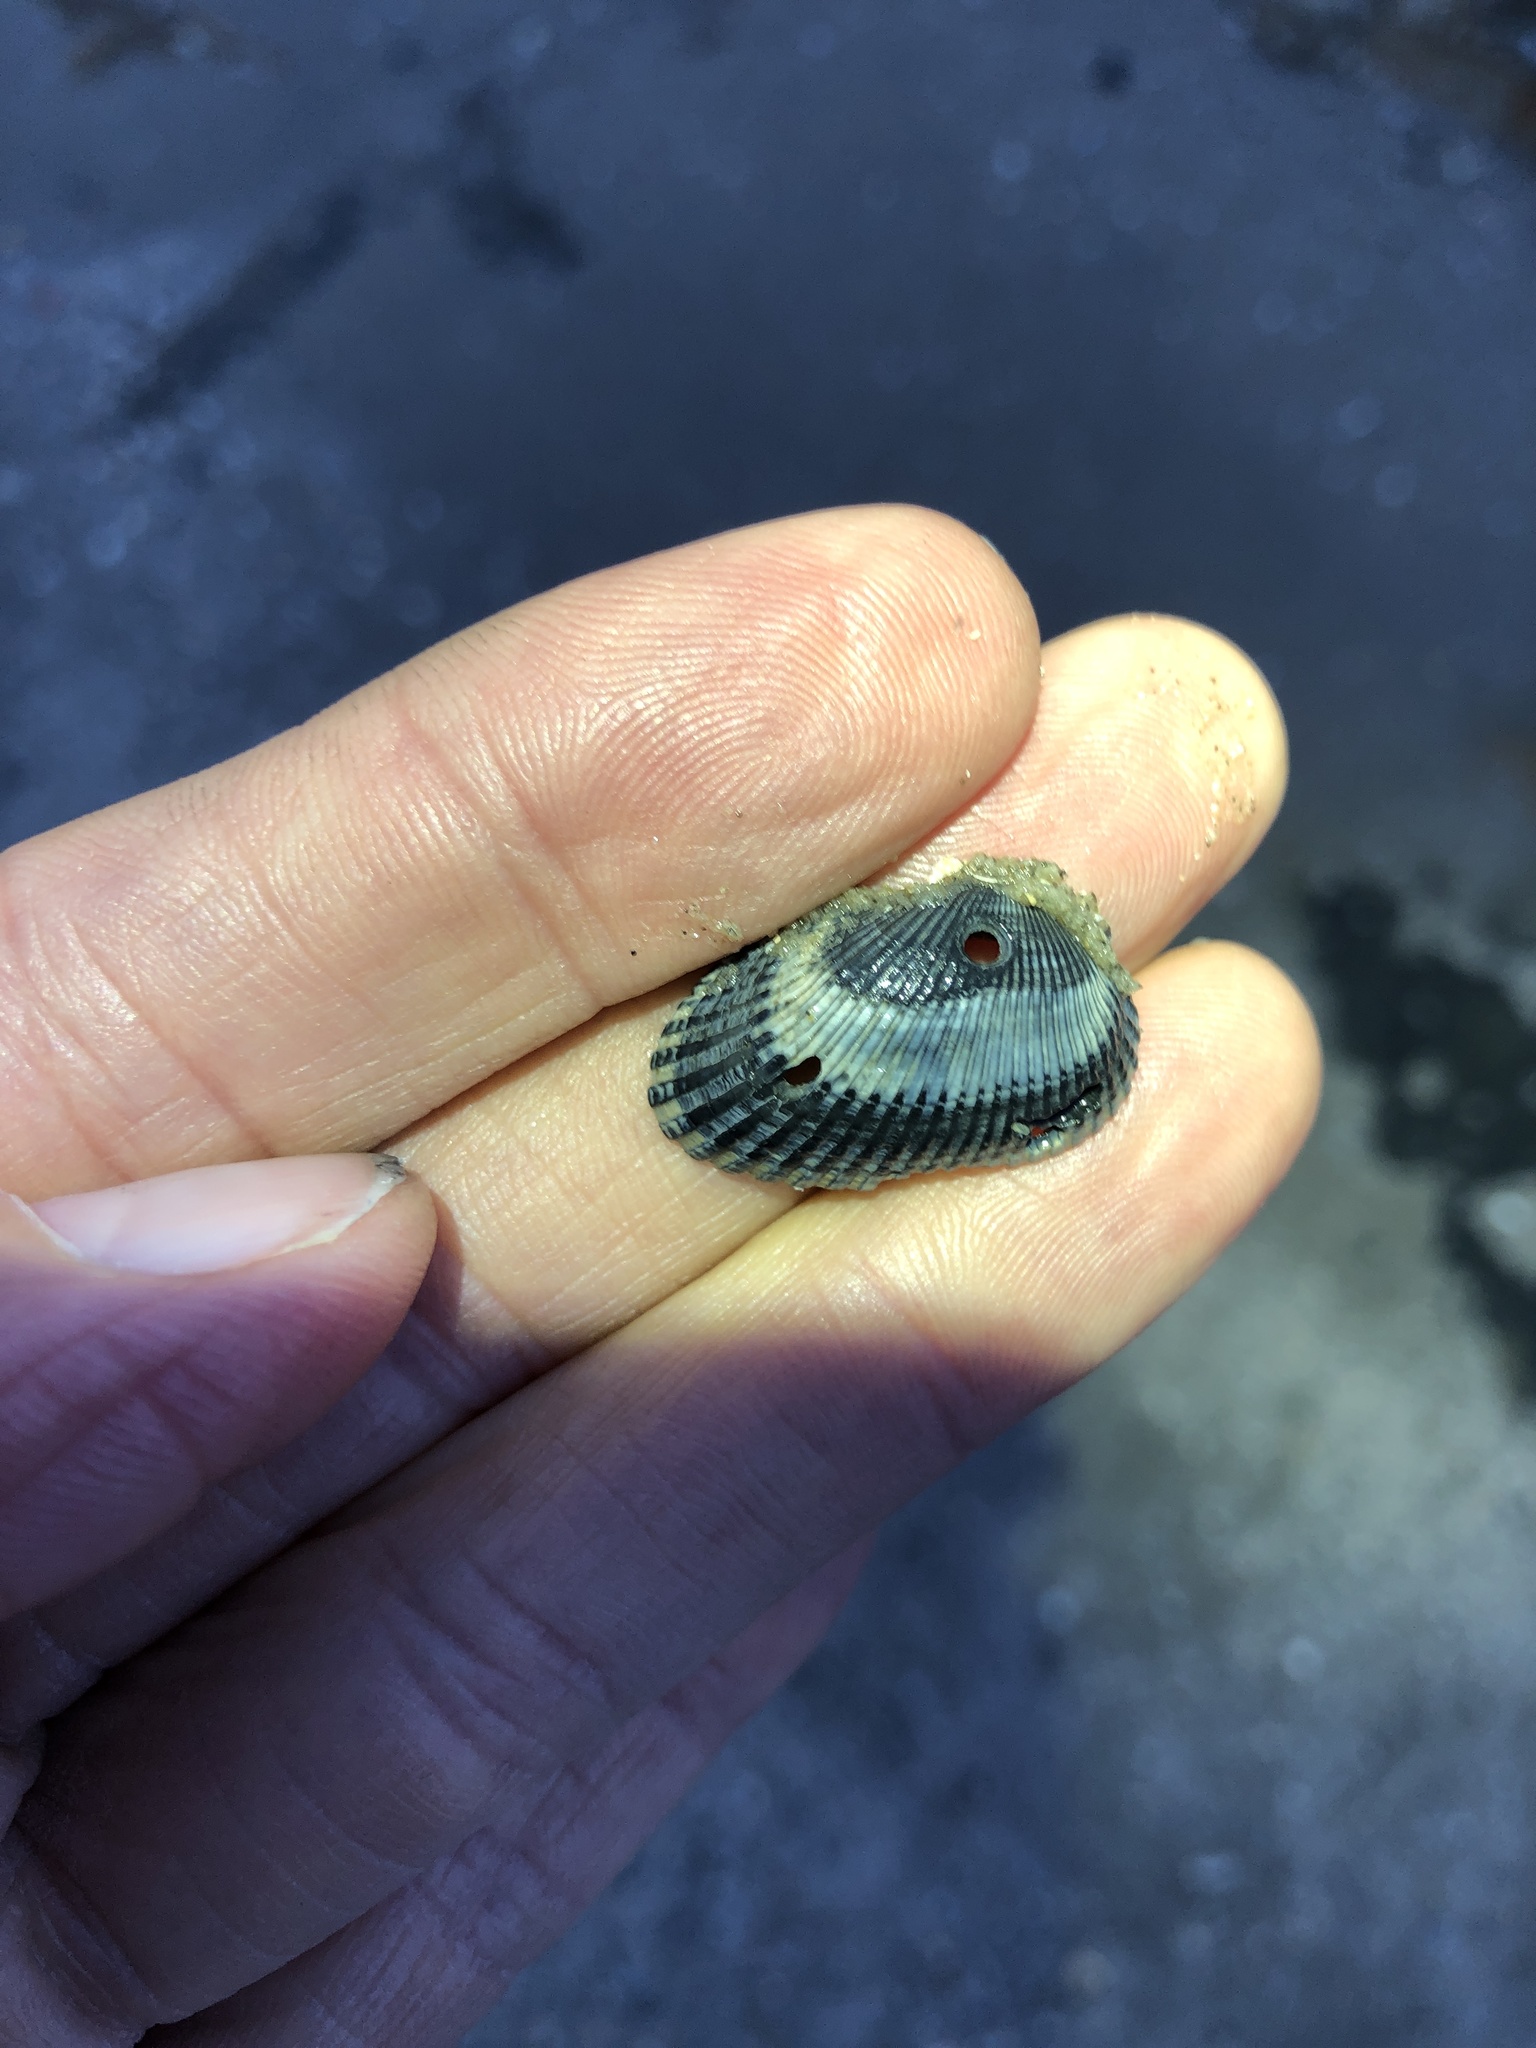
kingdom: Animalia
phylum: Mollusca
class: Bivalvia
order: Arcida
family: Arcidae
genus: Anadara
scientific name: Anadara transversa
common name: Transverse ark
